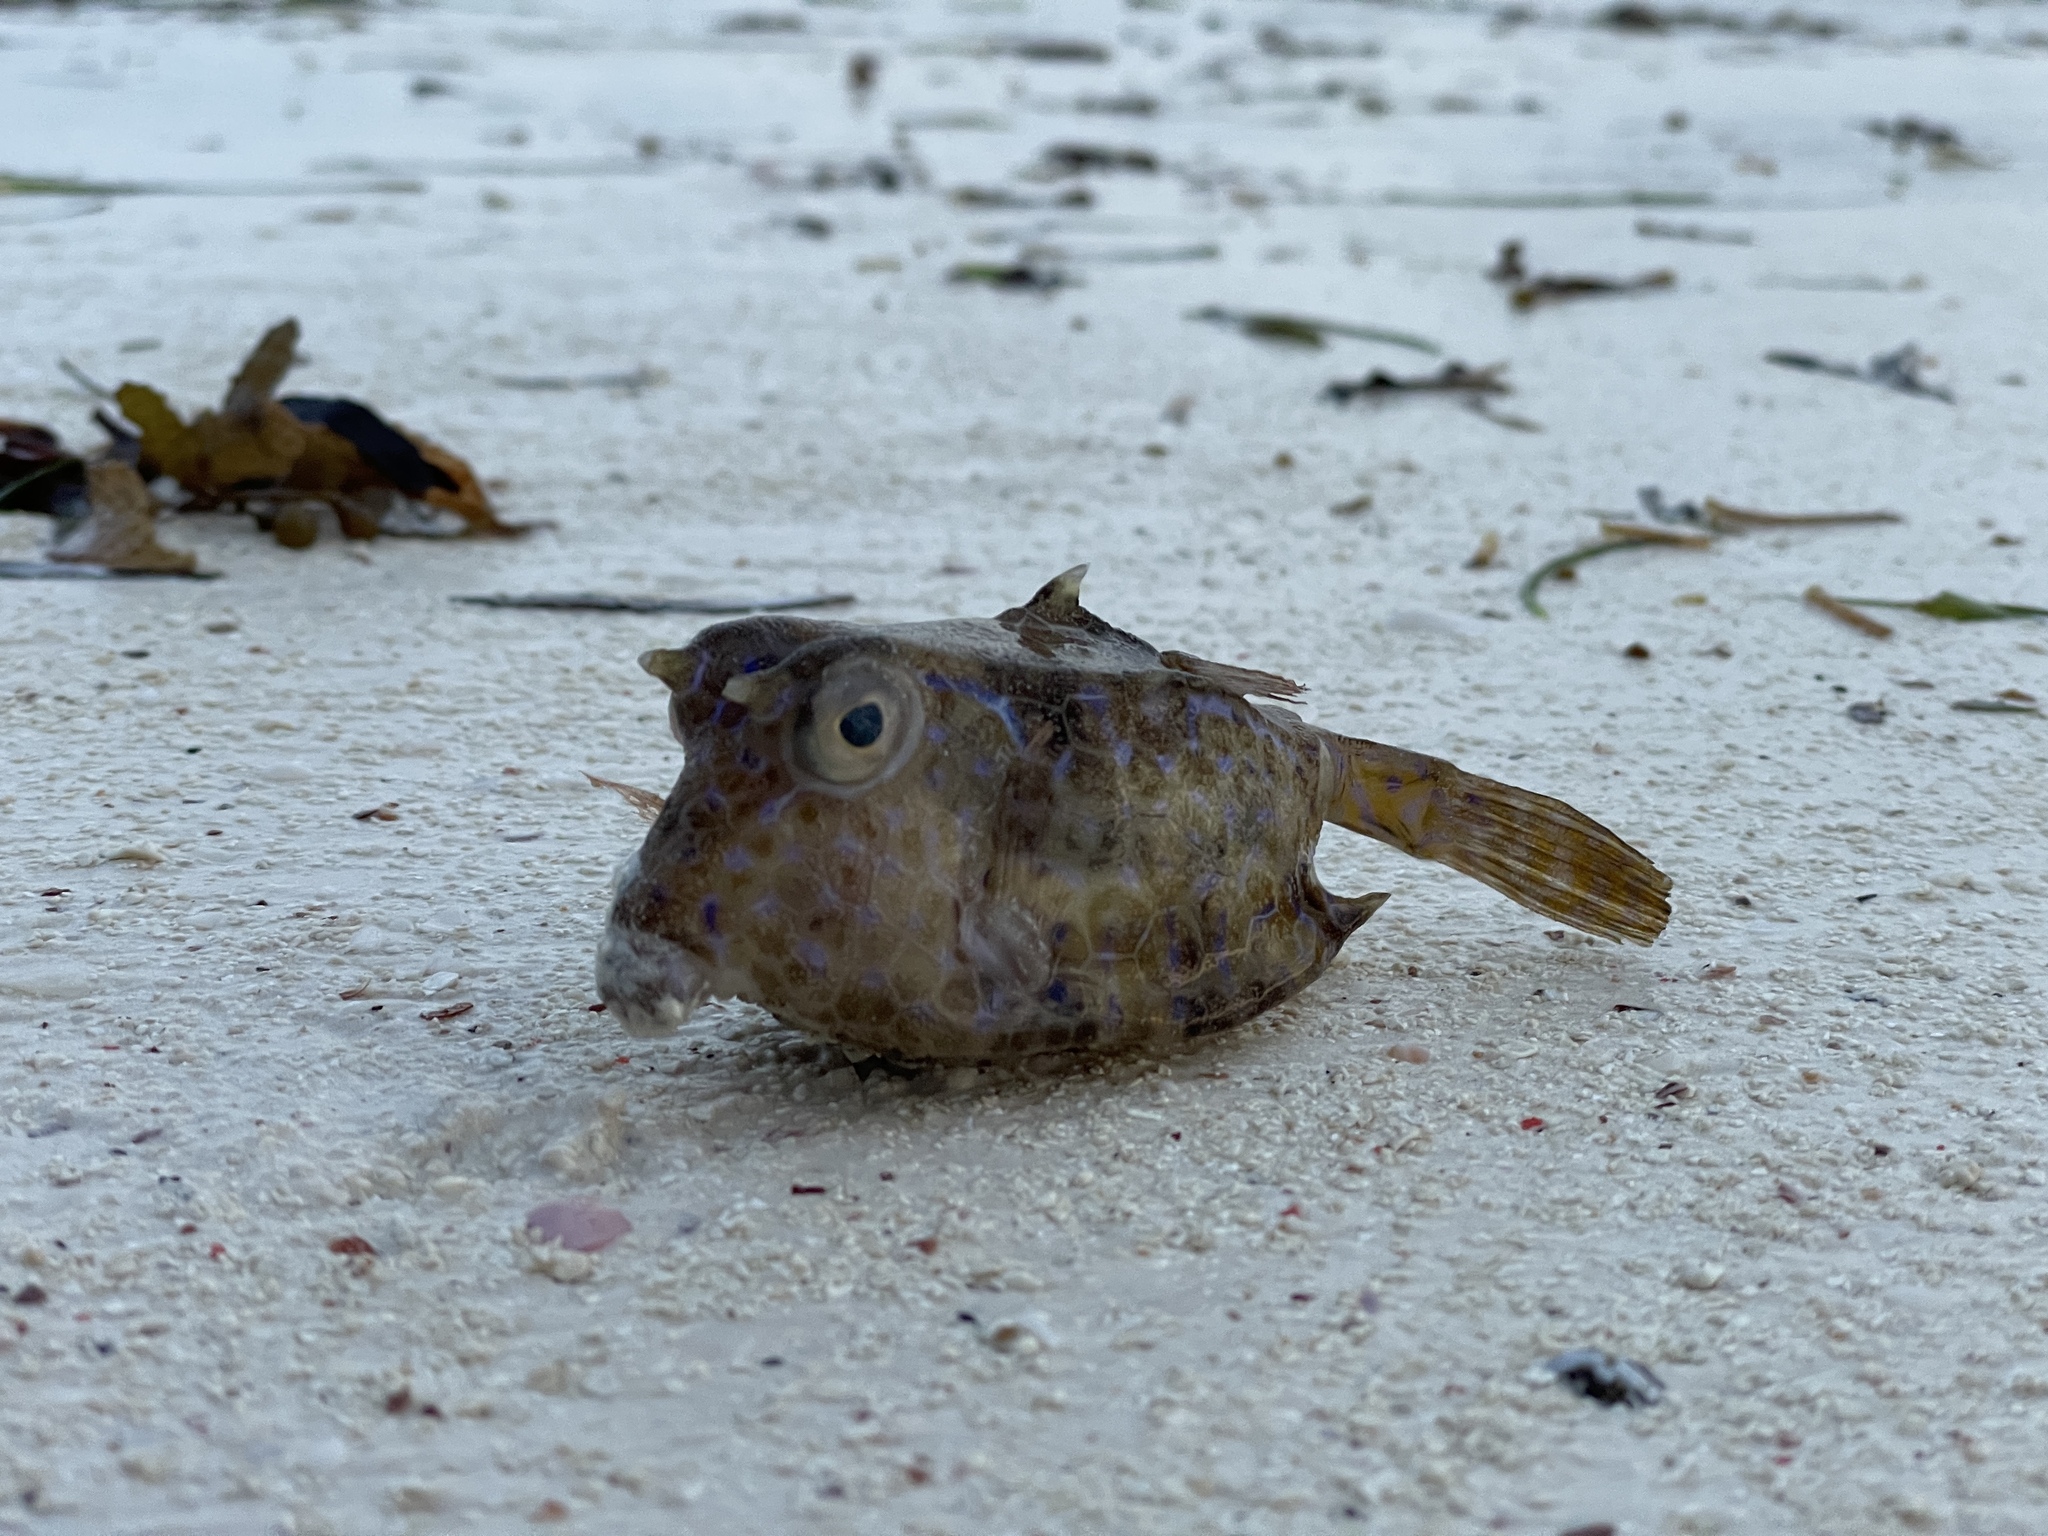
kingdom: Animalia
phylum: Chordata
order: Tetraodontiformes
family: Ostraciidae
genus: Lactoria
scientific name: Lactoria fornasini
